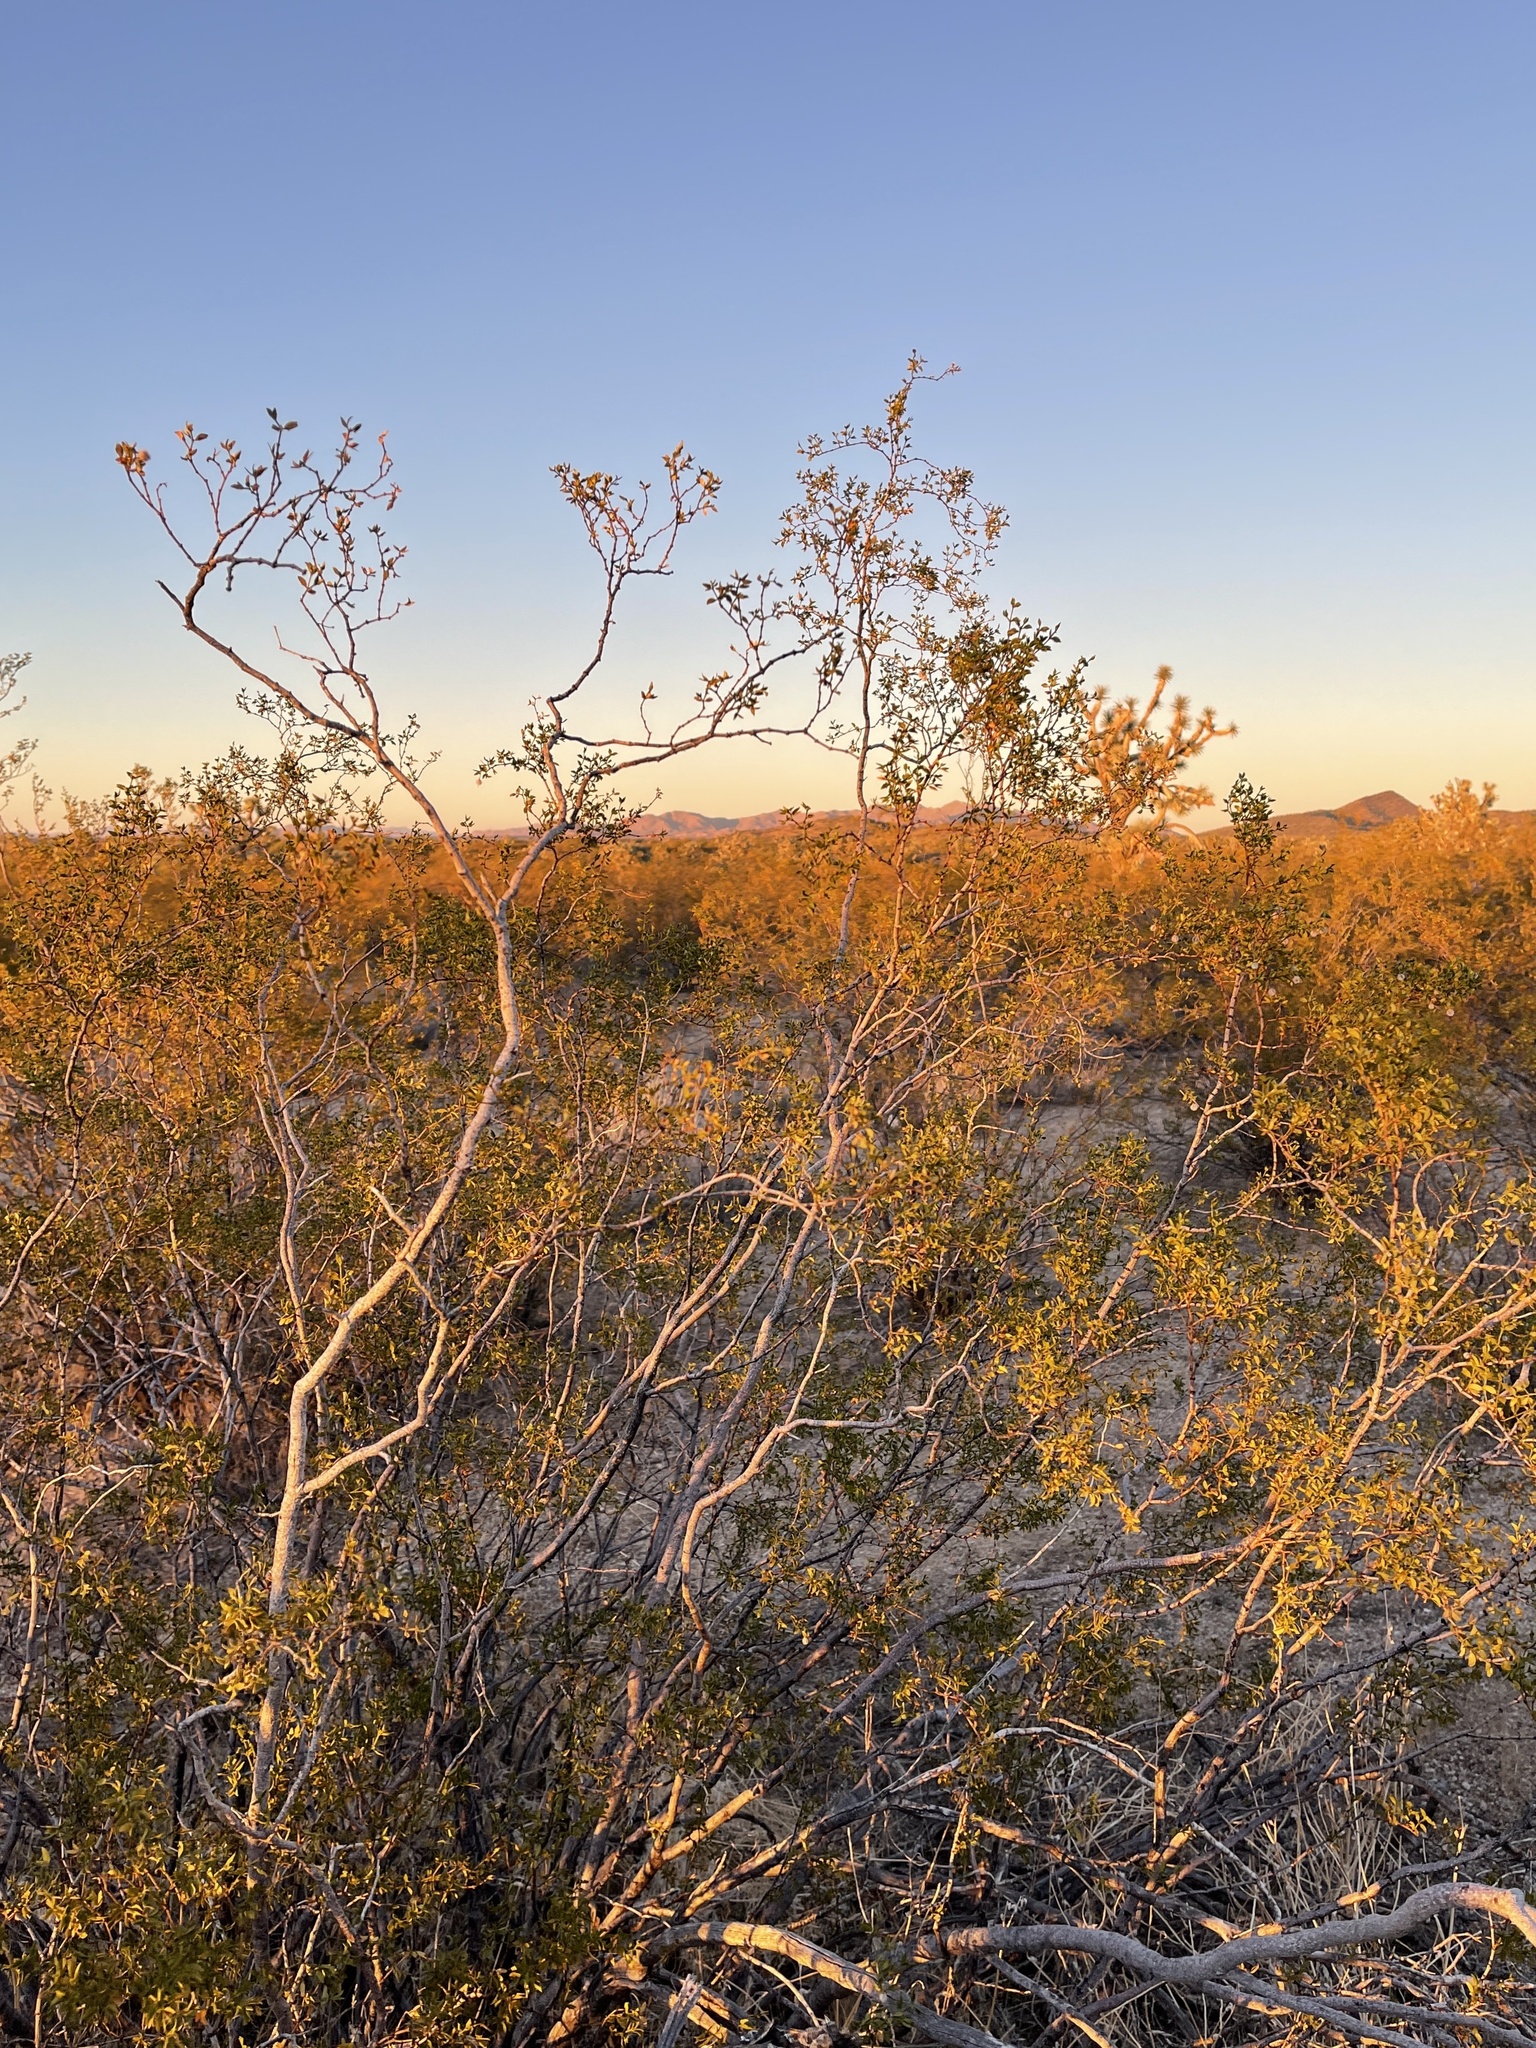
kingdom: Plantae
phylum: Tracheophyta
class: Magnoliopsida
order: Zygophyllales
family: Zygophyllaceae
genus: Larrea
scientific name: Larrea tridentata
